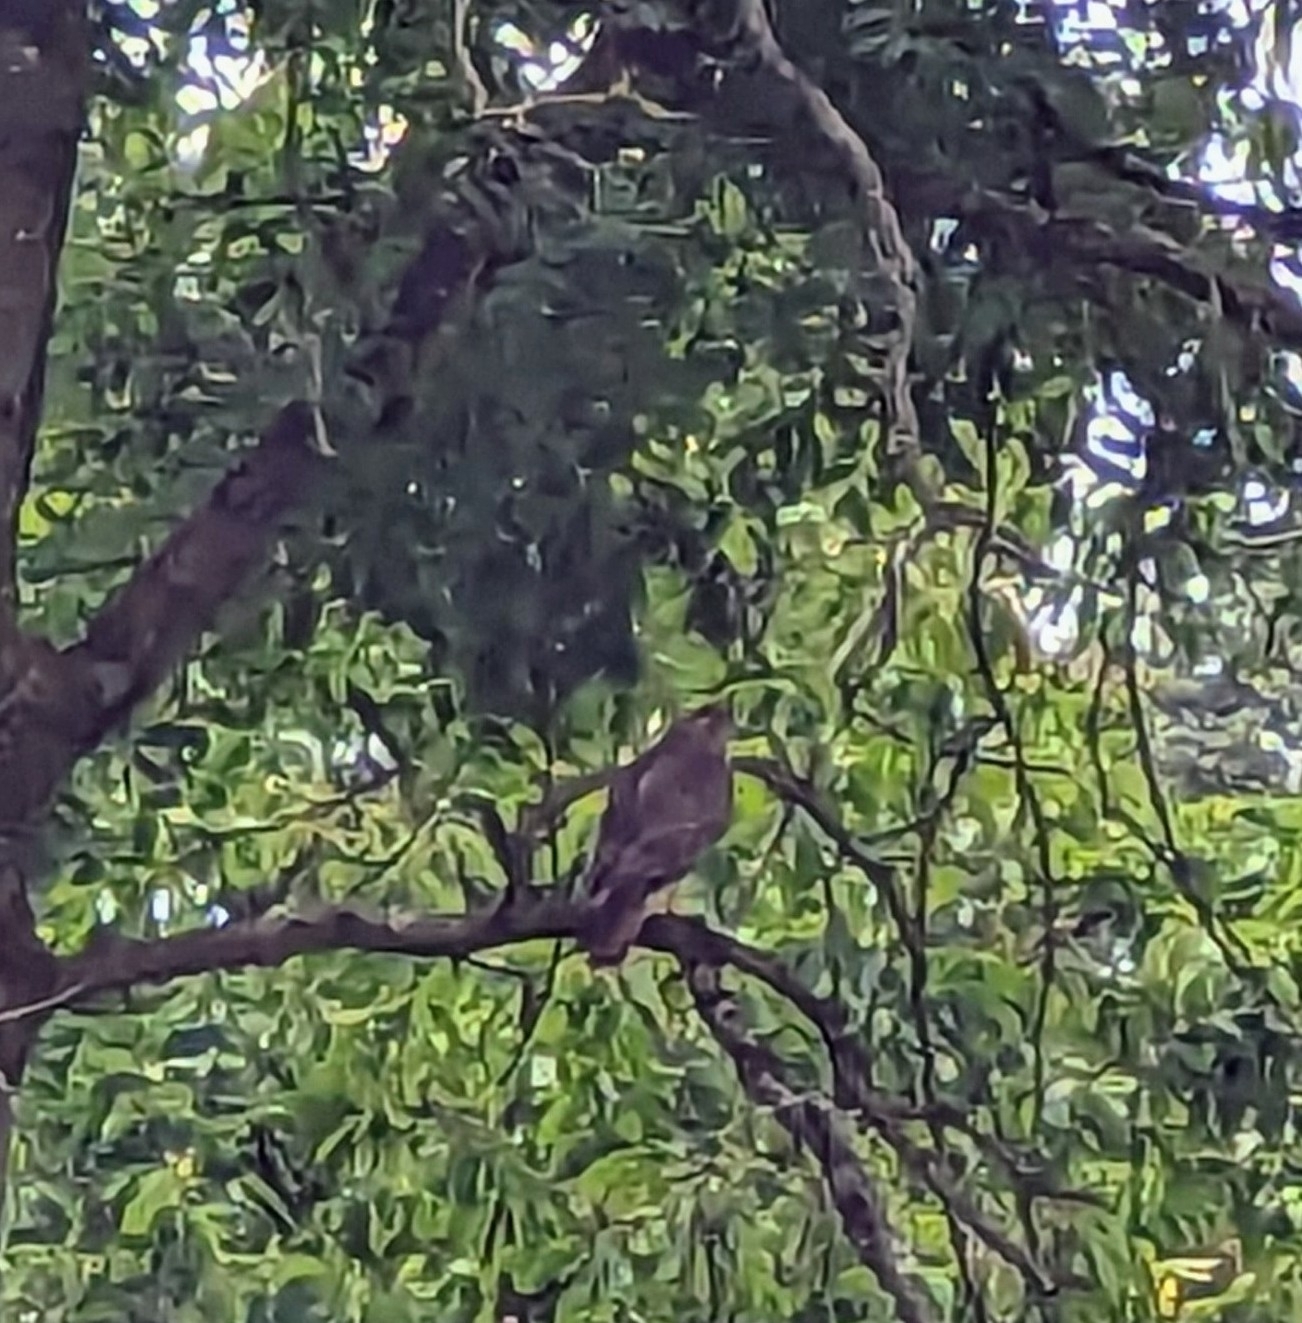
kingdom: Animalia
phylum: Chordata
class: Aves
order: Accipitriformes
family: Accipitridae
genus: Buteo
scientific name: Buteo buteo
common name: Common buzzard
